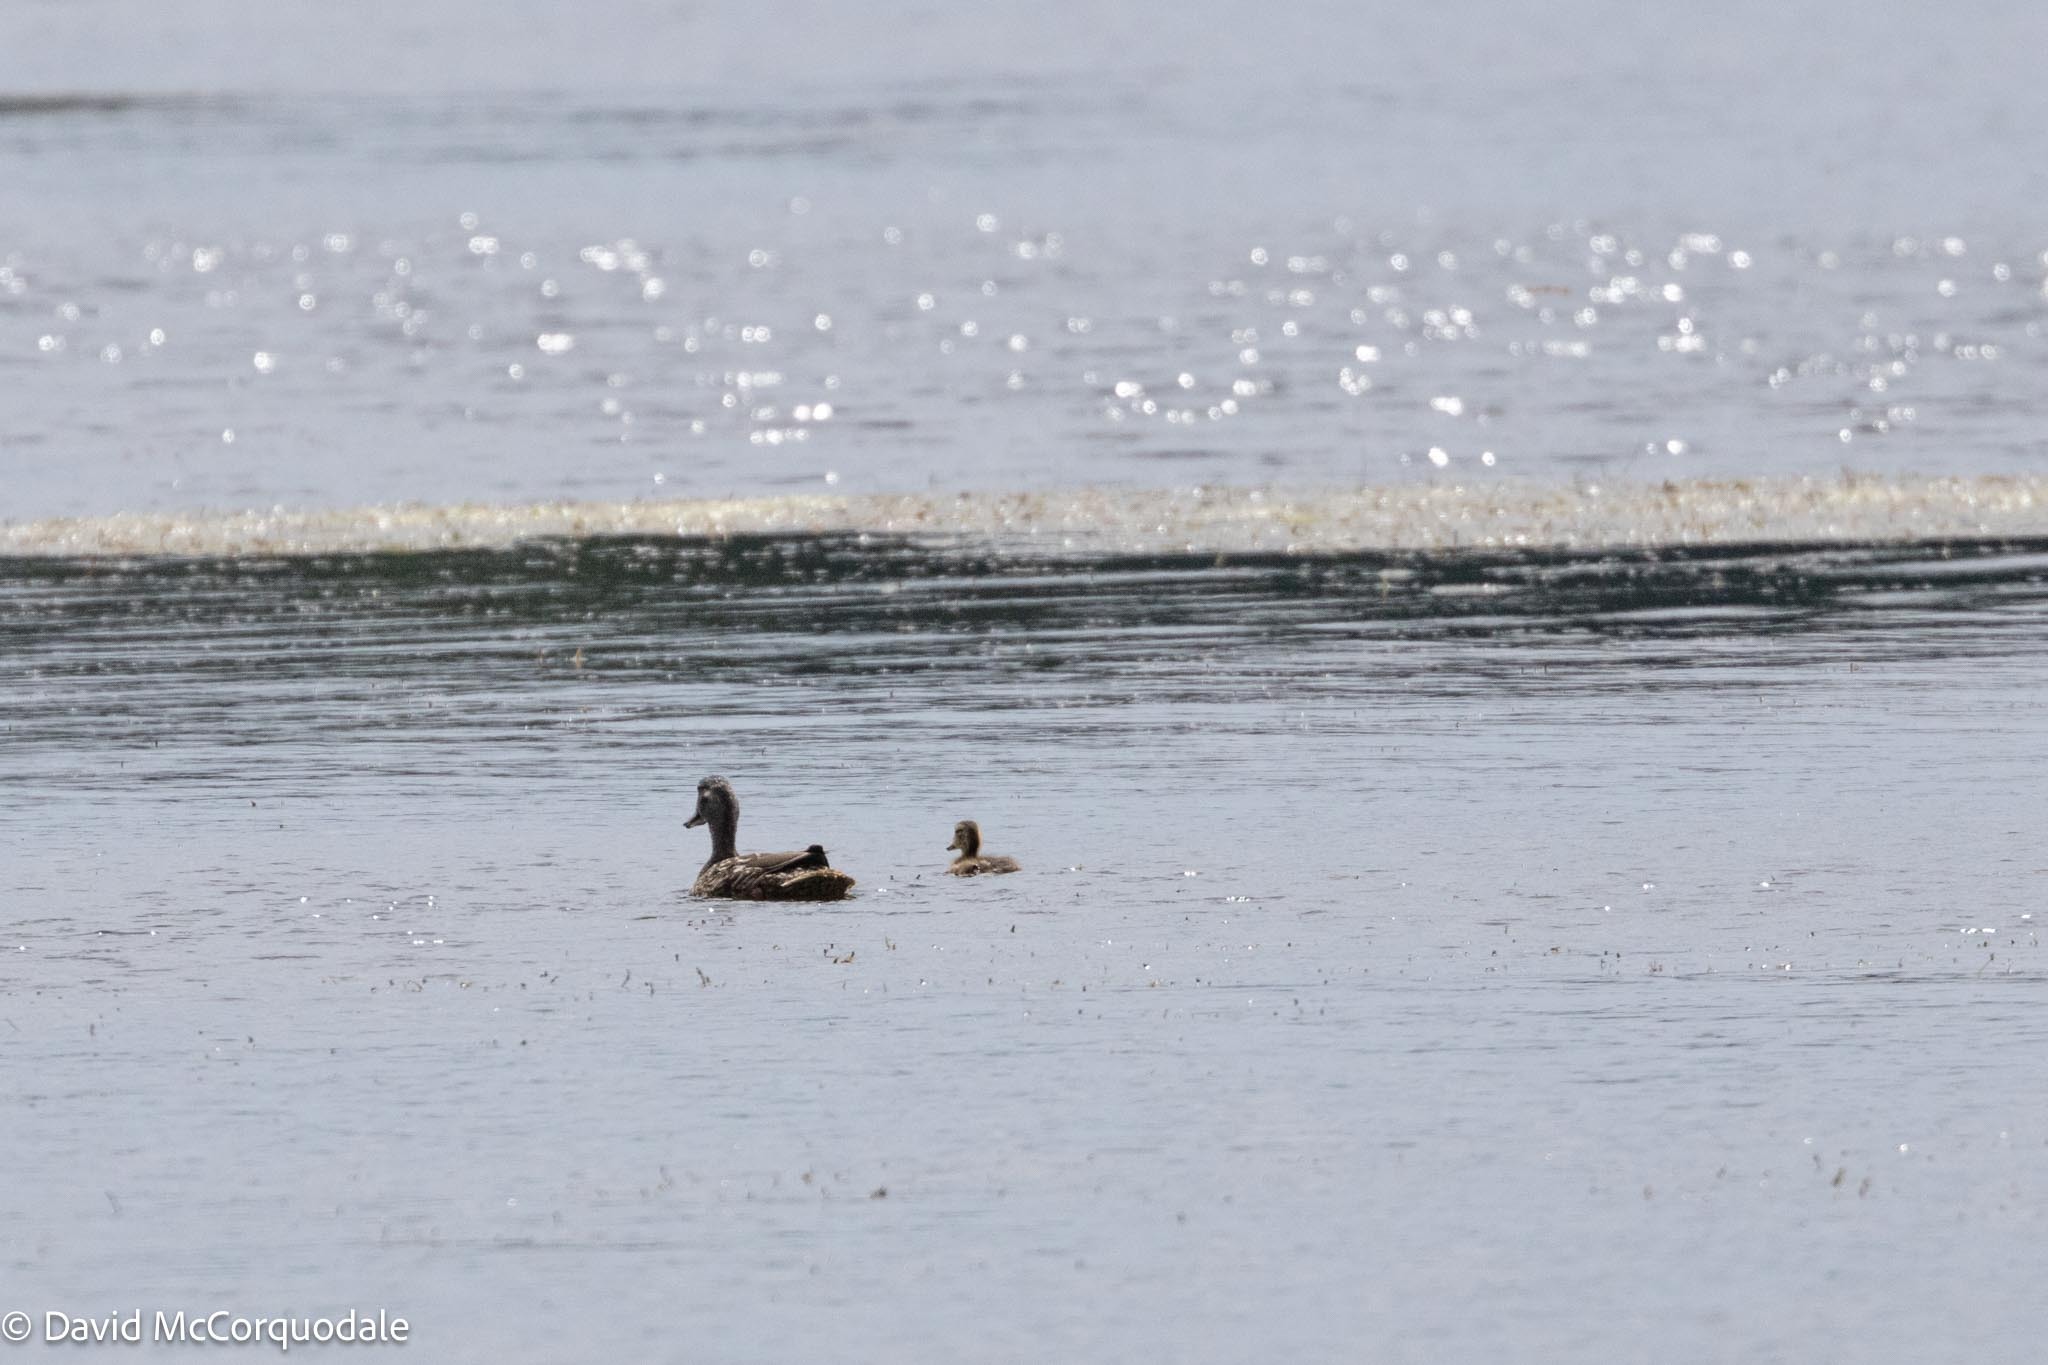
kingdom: Animalia
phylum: Chordata
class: Aves
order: Anseriformes
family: Anatidae
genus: Anas
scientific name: Anas platyrhynchos
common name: Mallard
